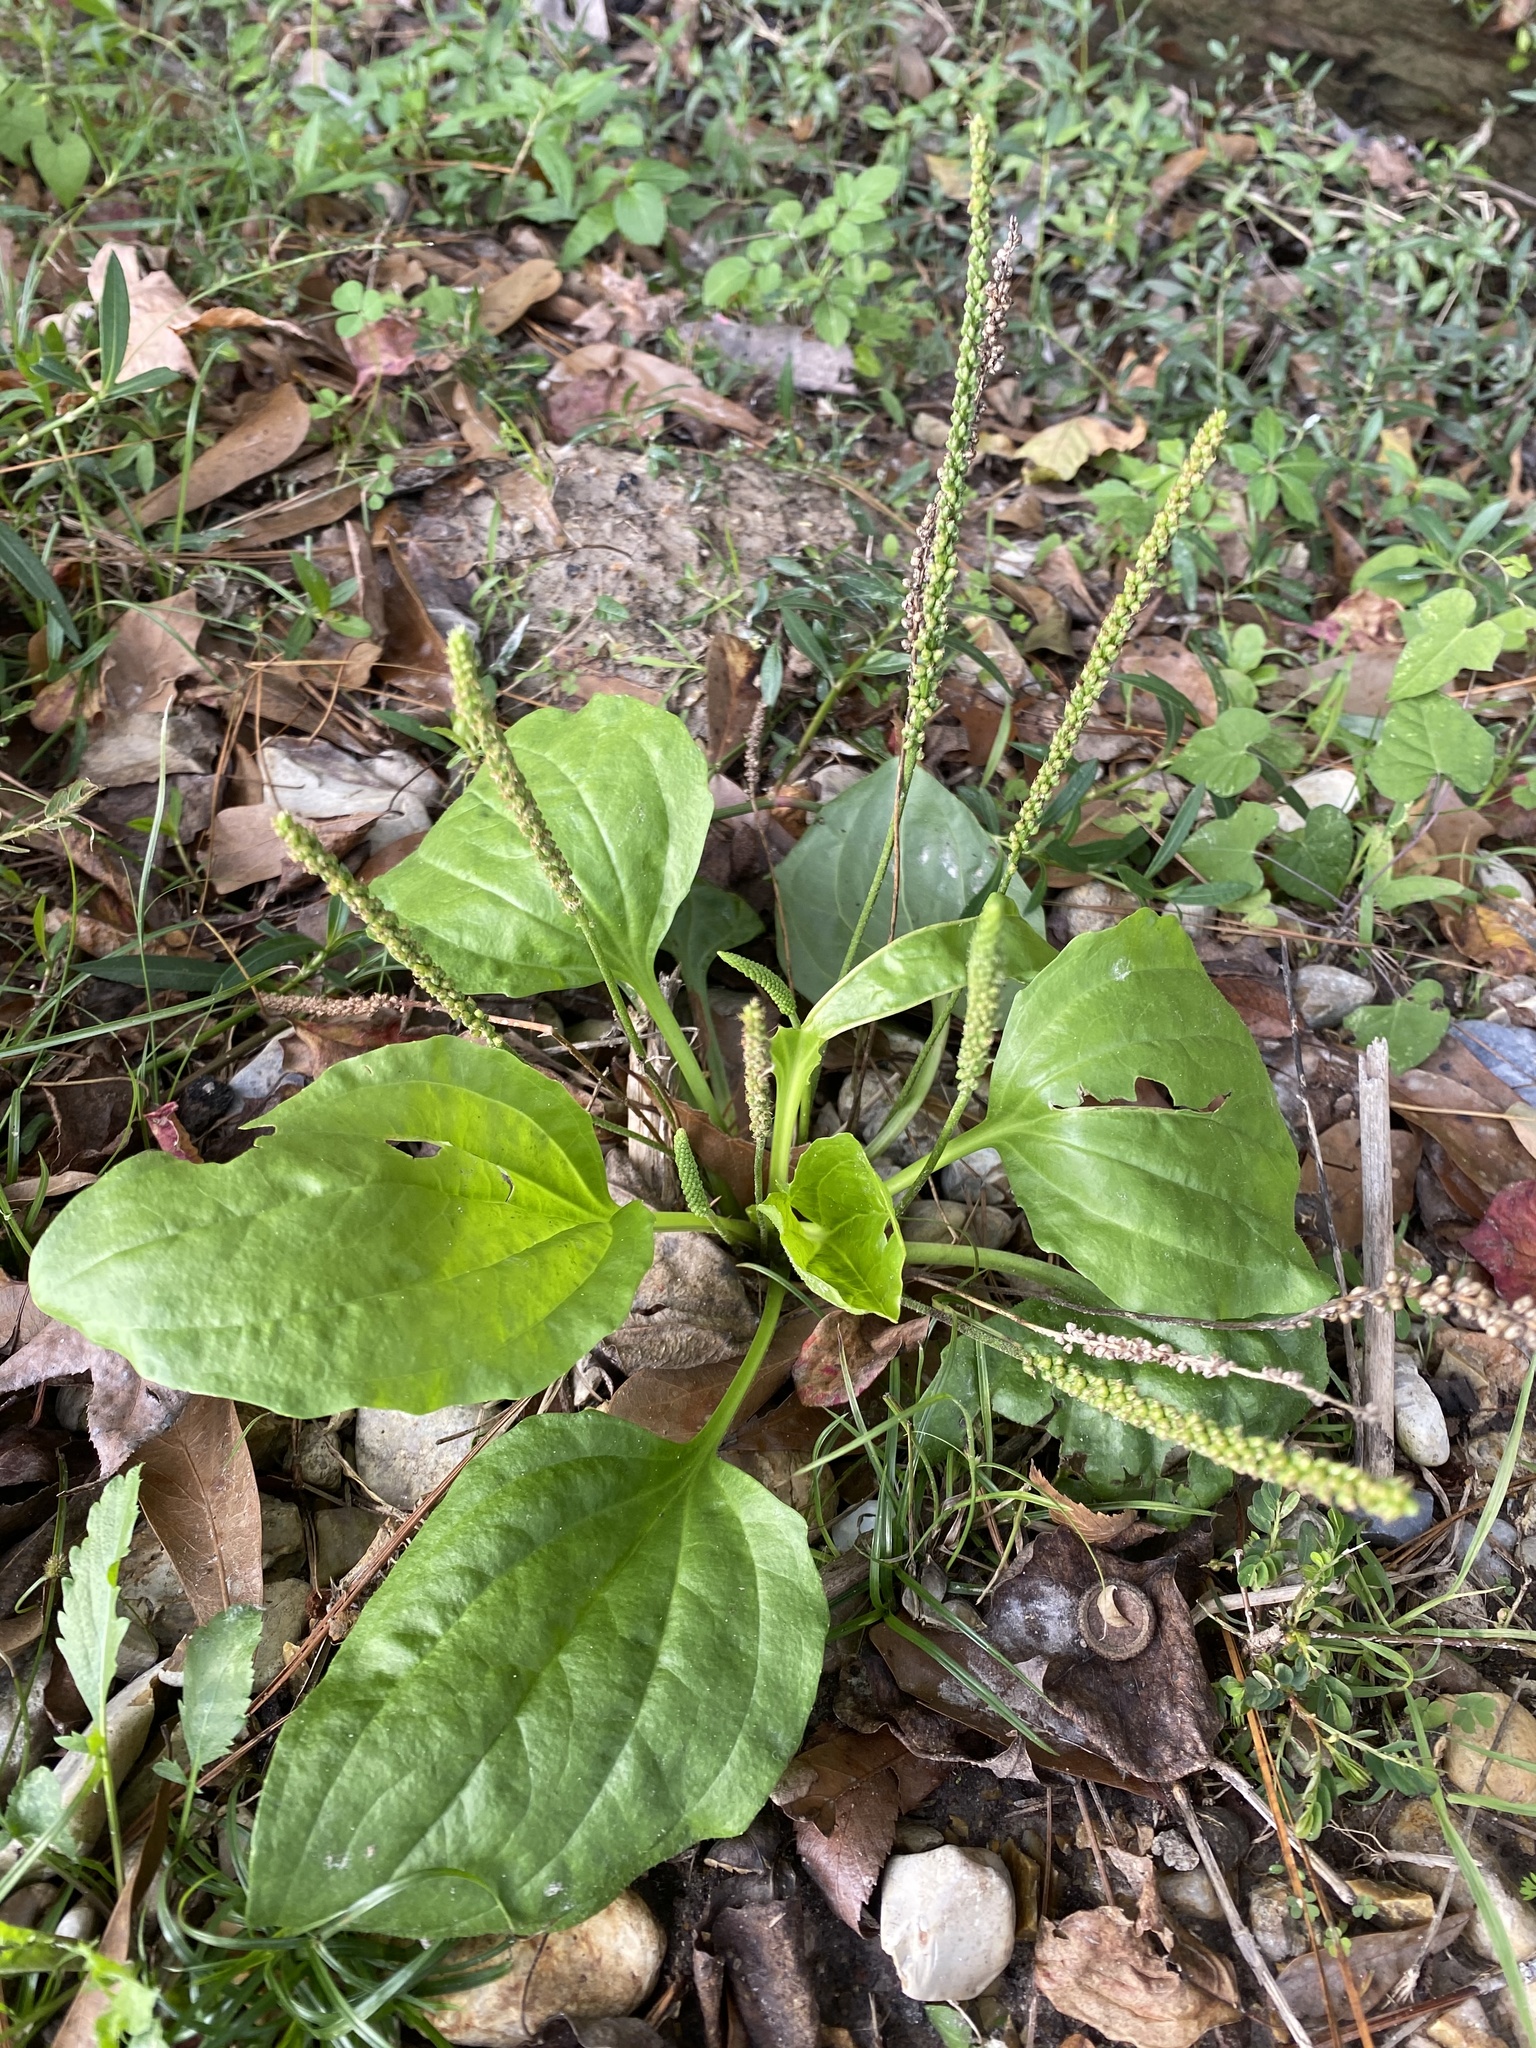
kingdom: Plantae
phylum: Tracheophyta
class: Magnoliopsida
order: Lamiales
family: Plantaginaceae
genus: Plantago
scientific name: Plantago major
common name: Common plantain
